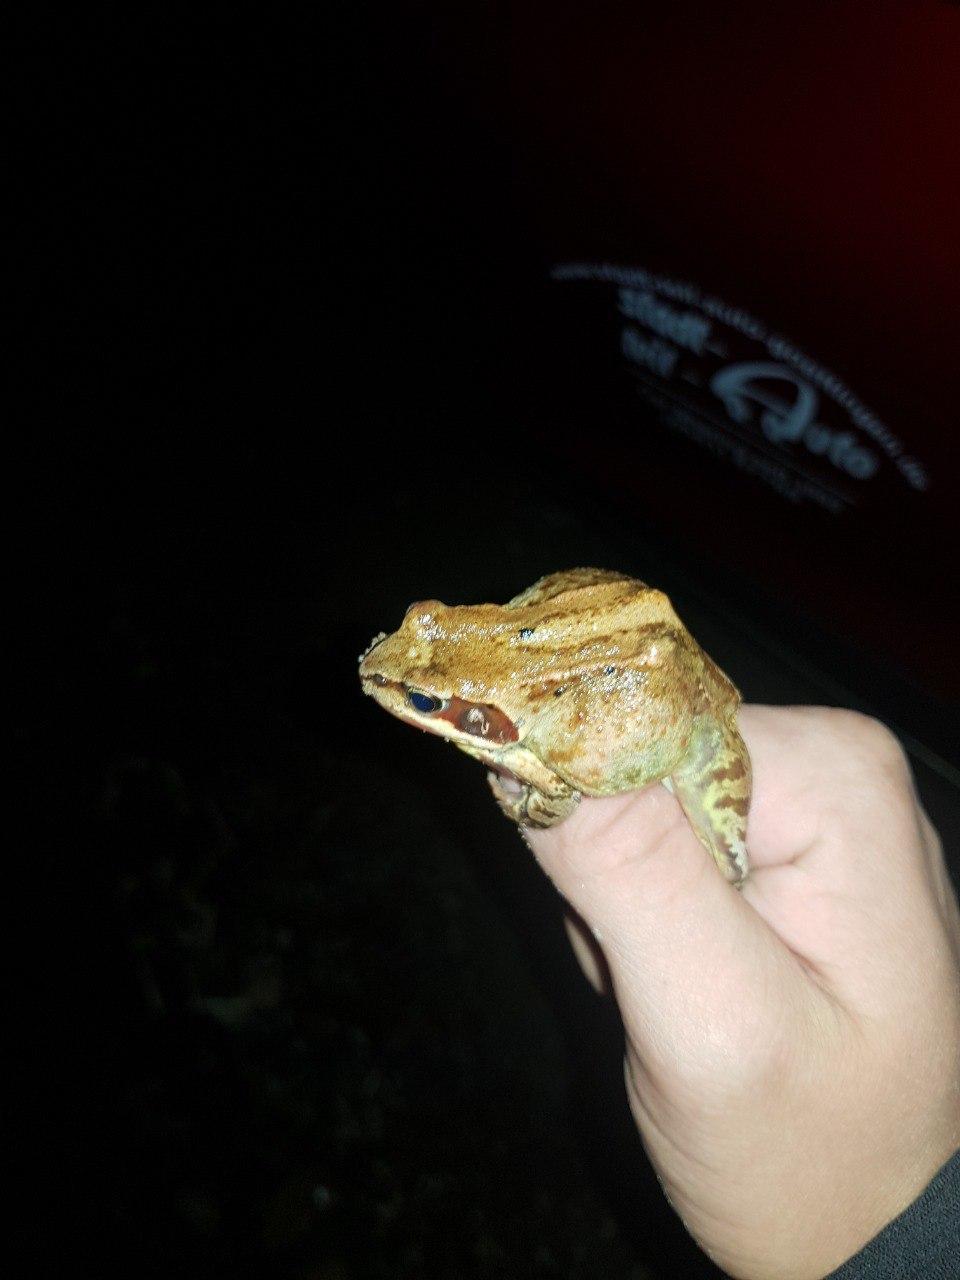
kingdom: Animalia
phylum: Chordata
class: Amphibia
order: Anura
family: Ranidae
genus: Rana
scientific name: Rana temporaria
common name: Common frog
